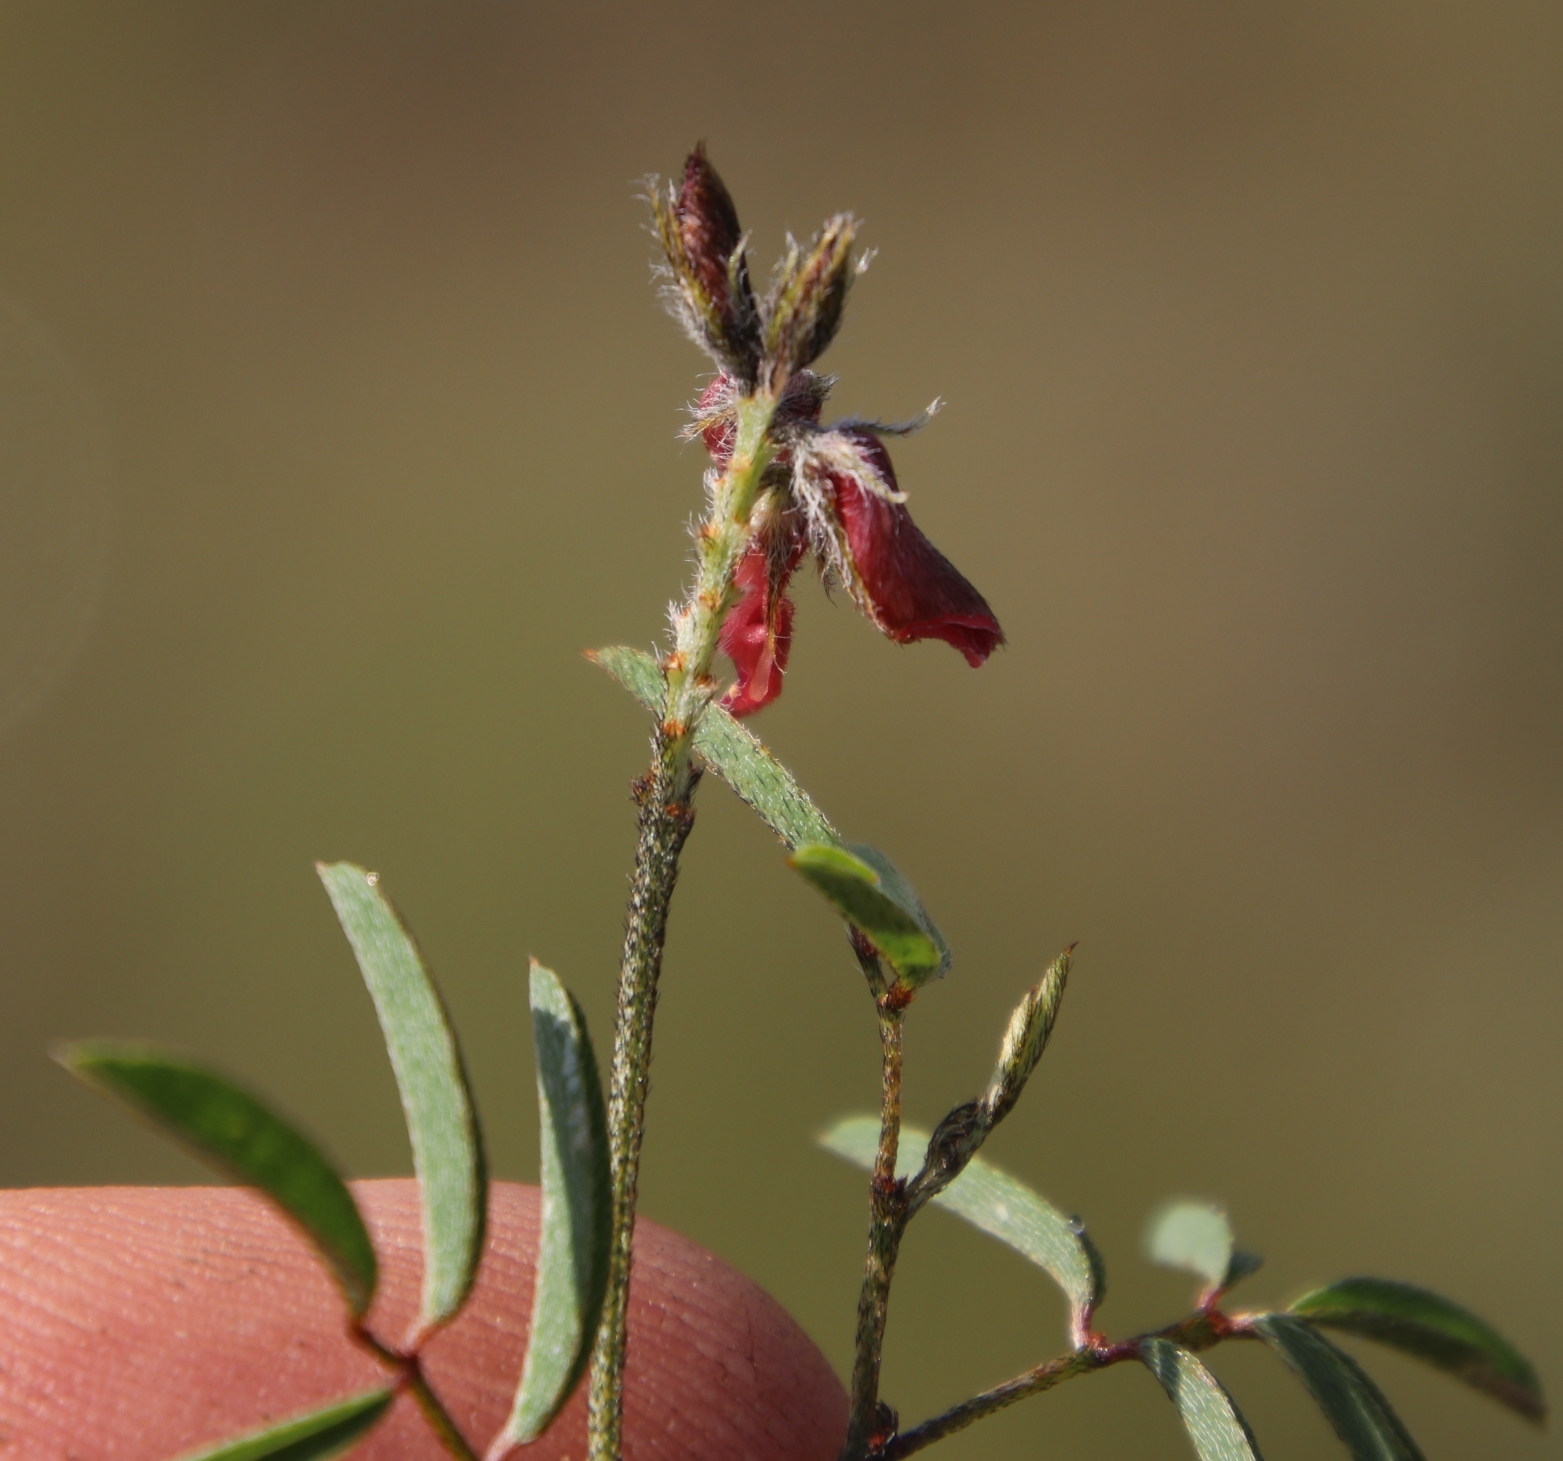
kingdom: Plantae
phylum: Tracheophyta
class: Magnoliopsida
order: Fabales
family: Fabaceae
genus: Indigofera
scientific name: Indigofera atrata
